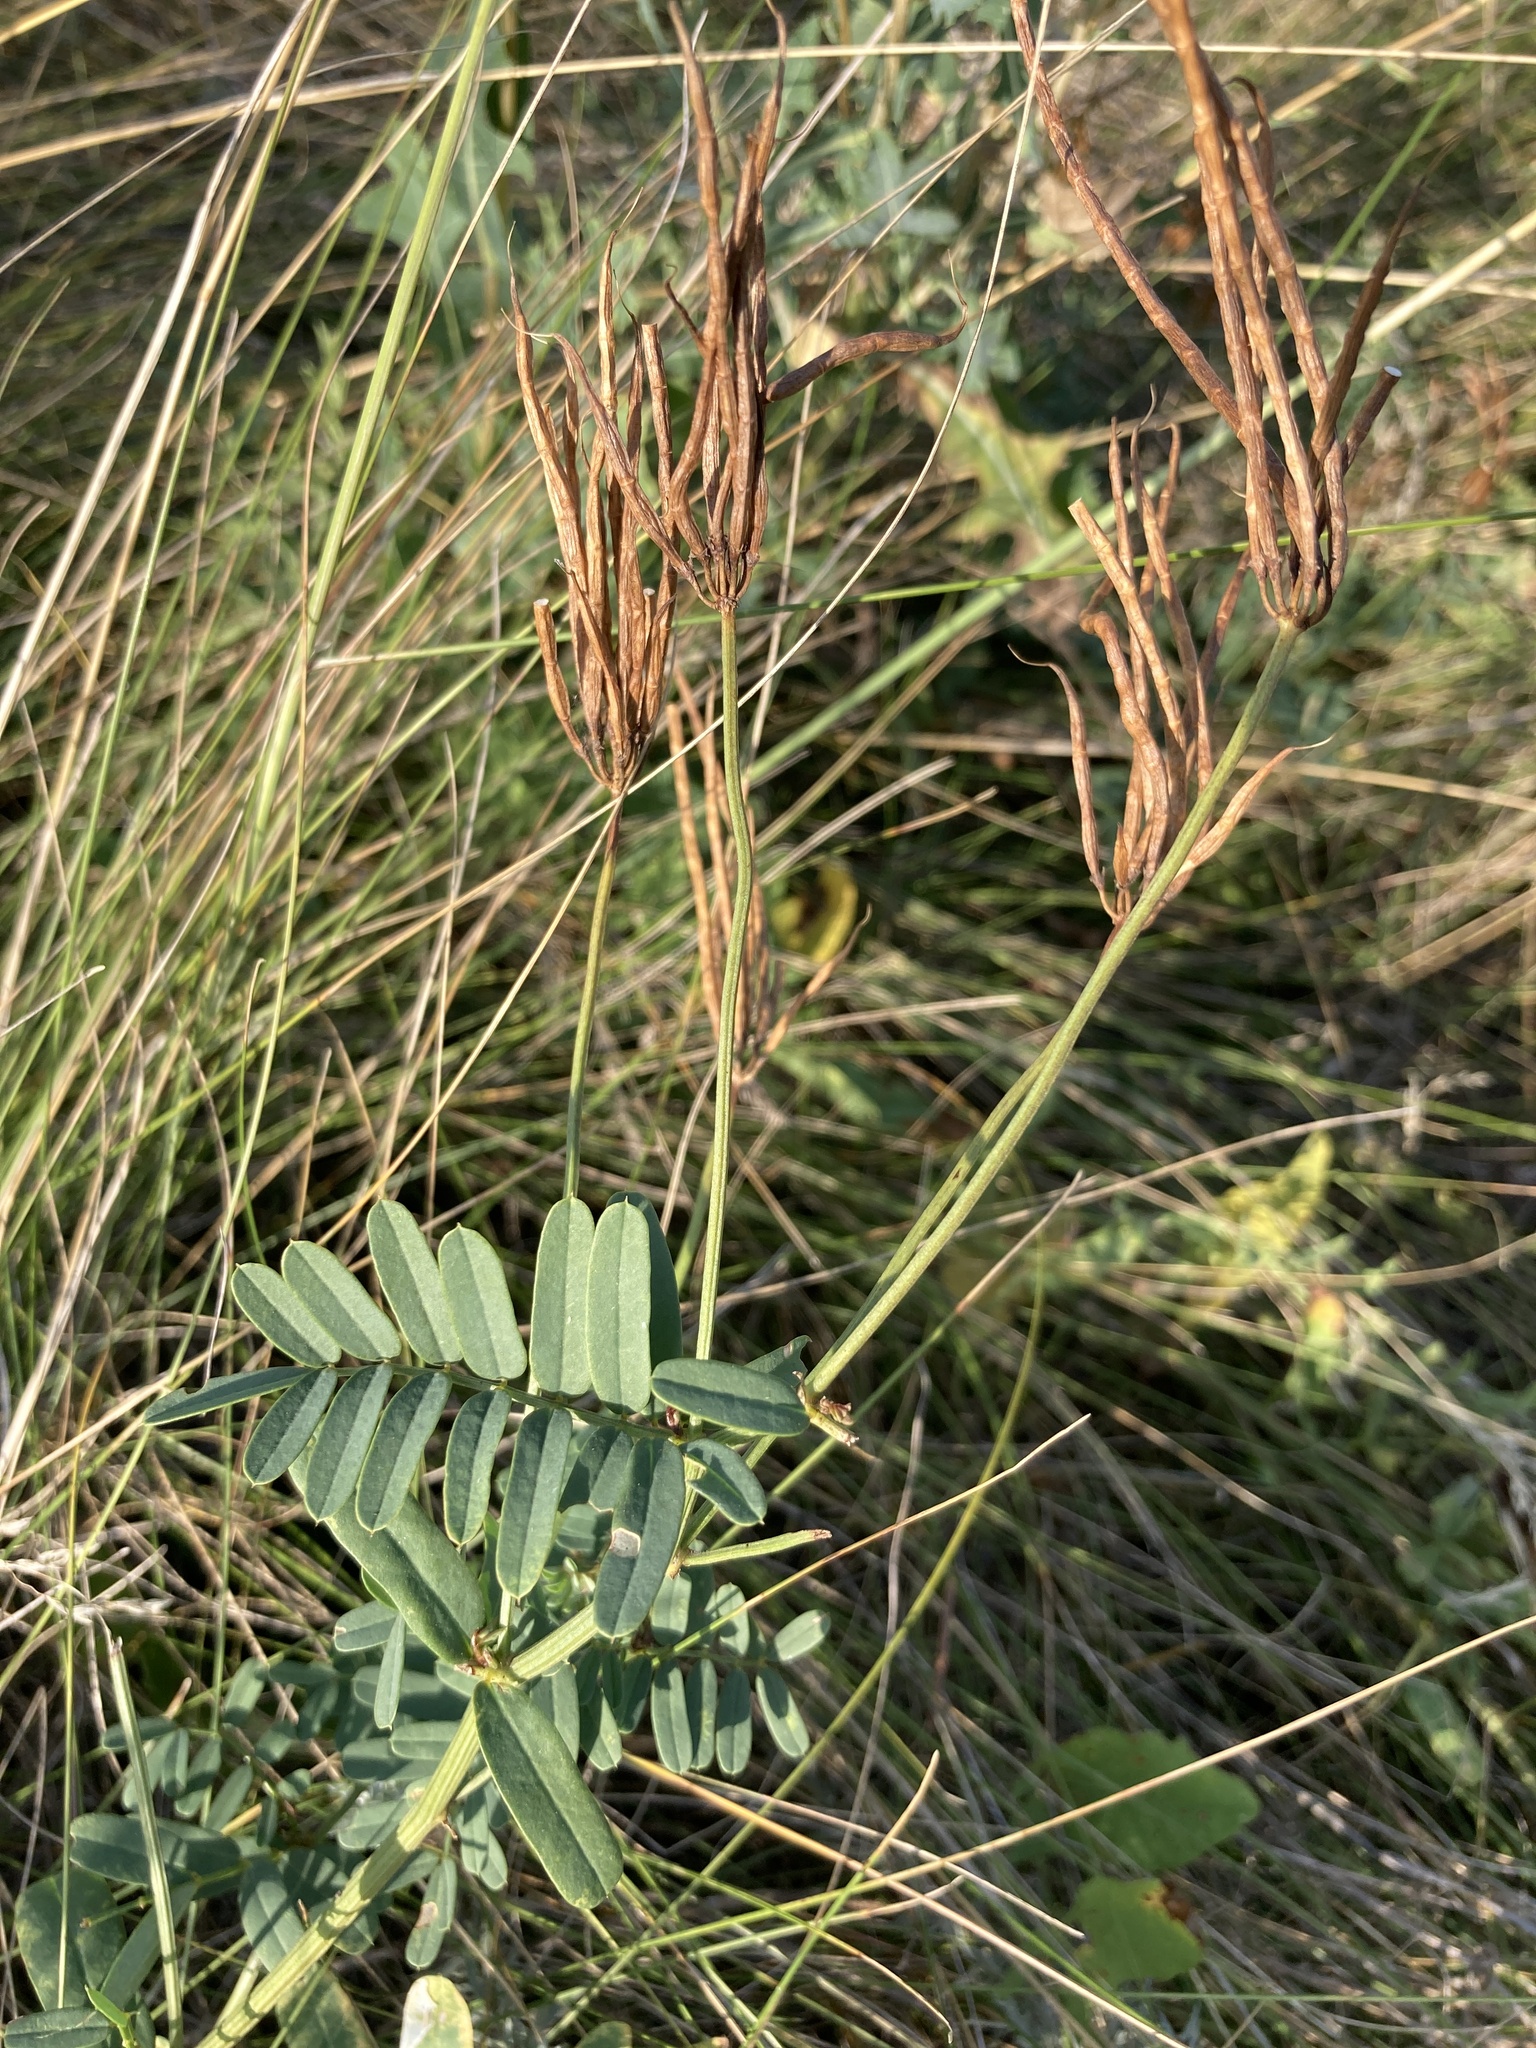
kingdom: Plantae
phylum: Tracheophyta
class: Magnoliopsida
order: Fabales
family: Fabaceae
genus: Coronilla
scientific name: Coronilla varia
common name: Crownvetch
